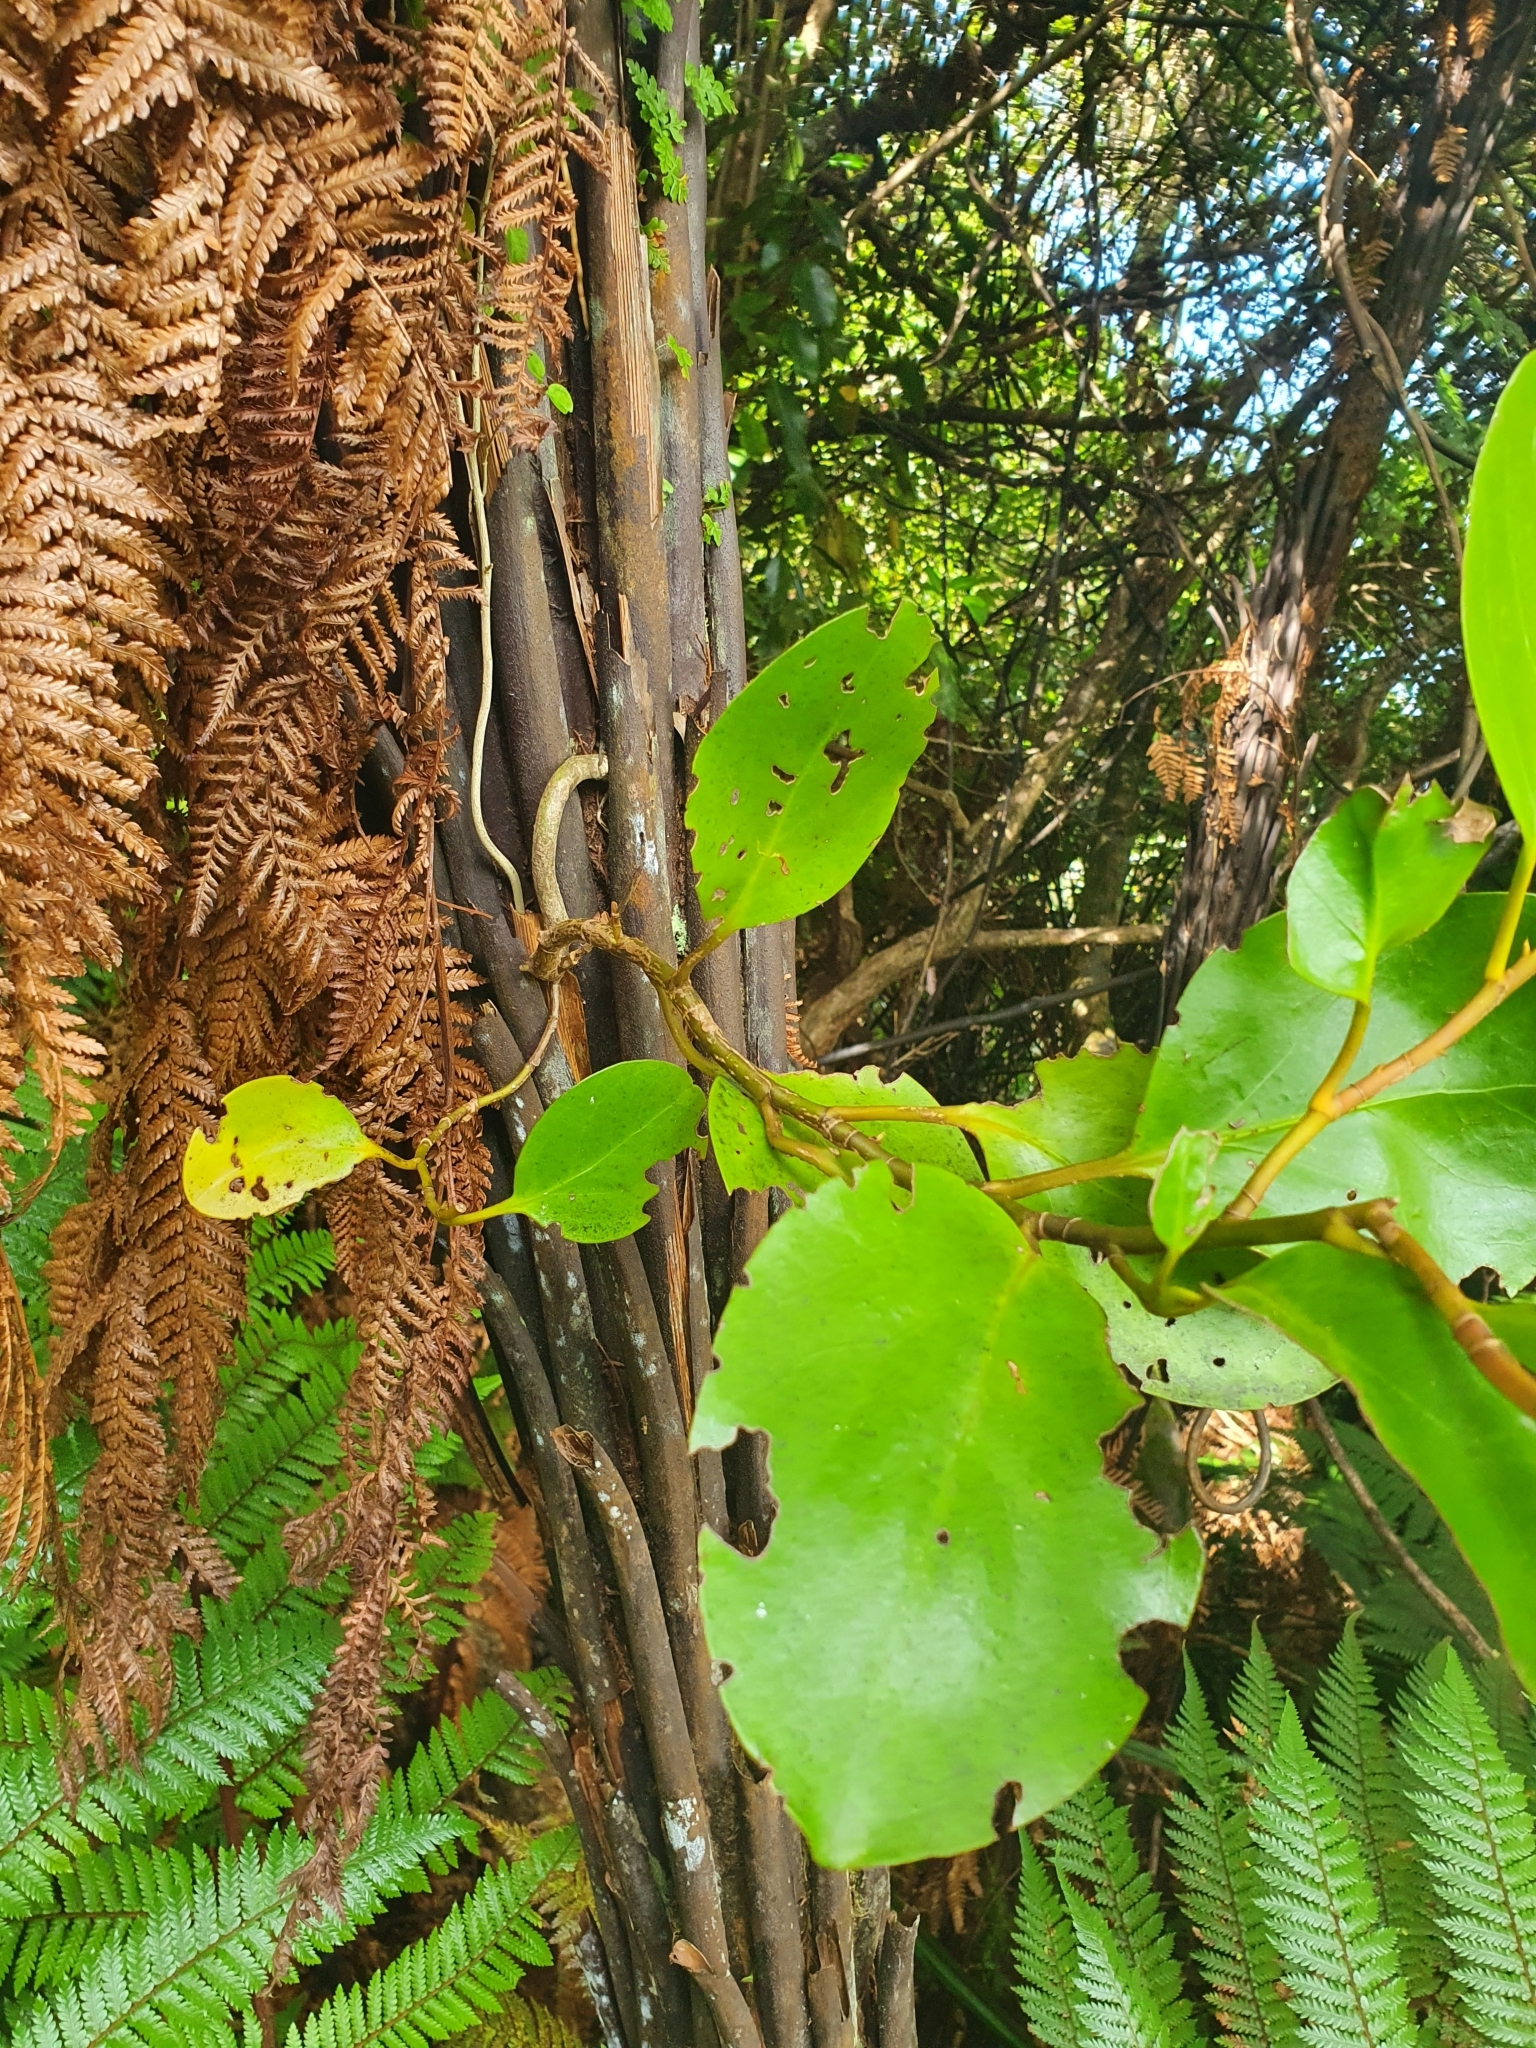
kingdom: Plantae
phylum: Tracheophyta
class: Magnoliopsida
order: Apiales
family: Griseliniaceae
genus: Griselinia
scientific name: Griselinia littoralis
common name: New zealand broadleaf
